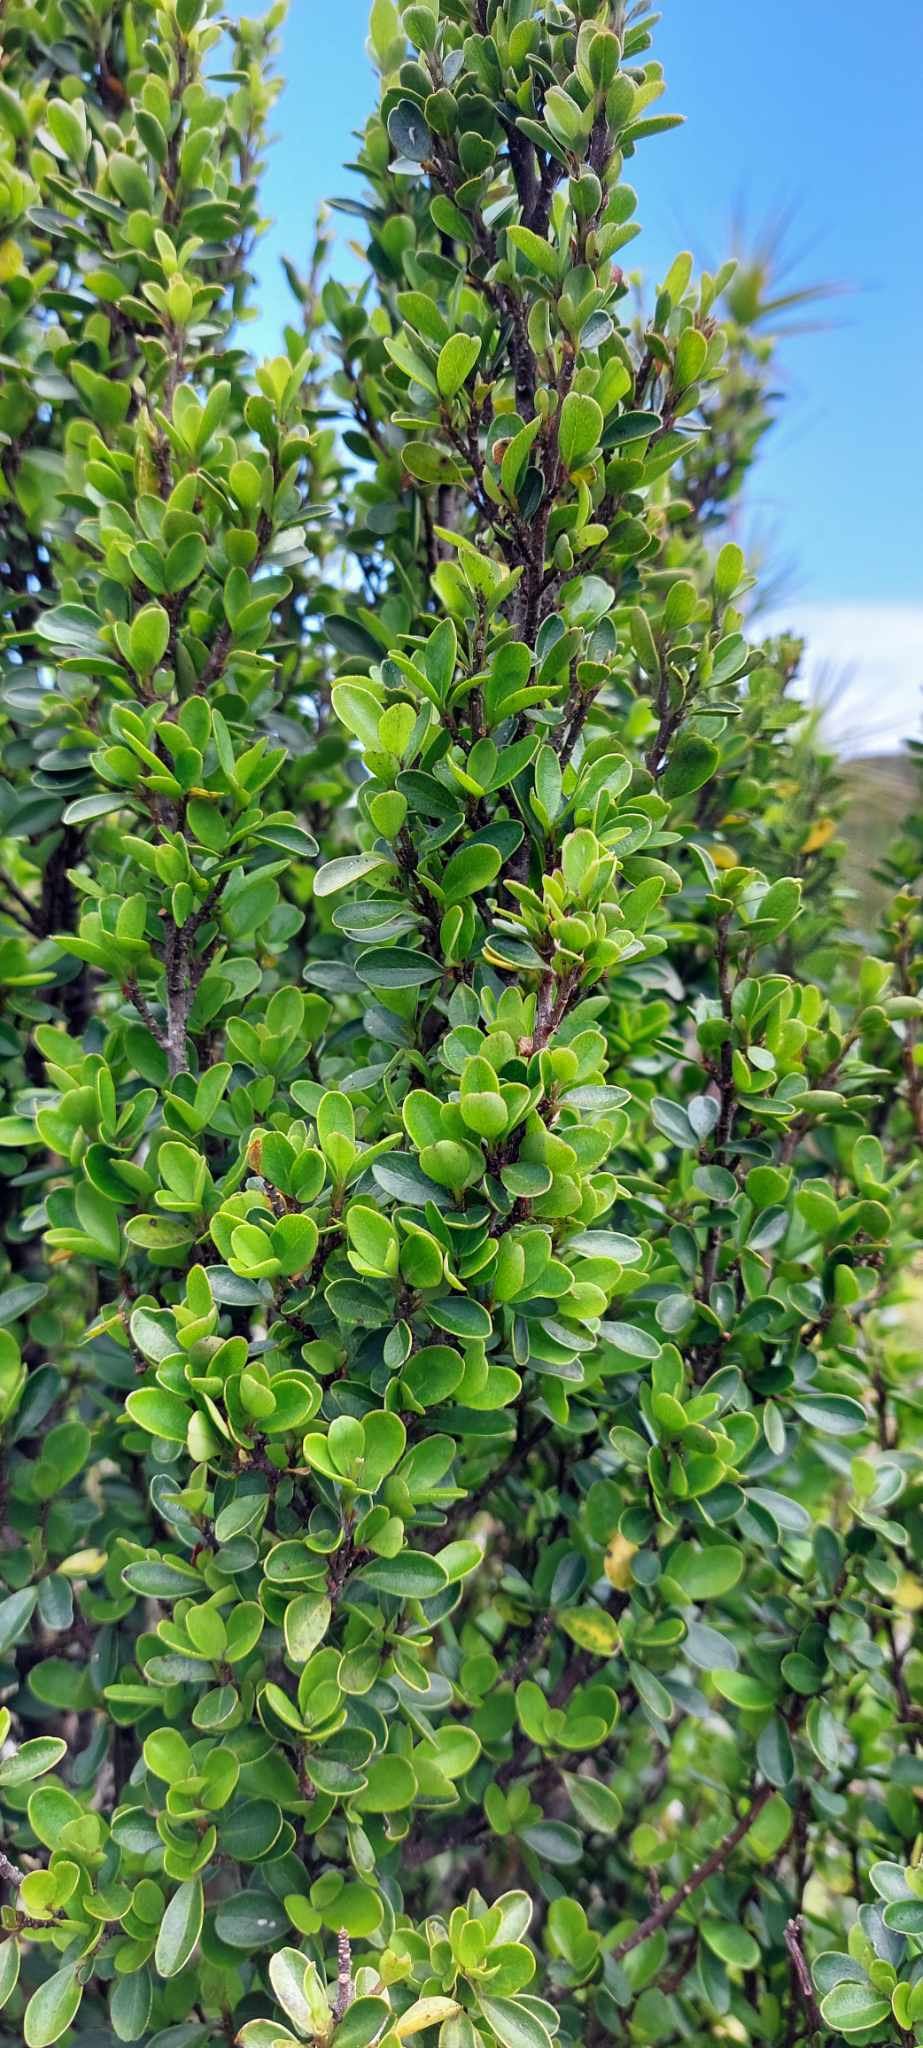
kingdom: Plantae
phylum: Tracheophyta
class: Magnoliopsida
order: Ericales
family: Primulaceae
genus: Myrsine
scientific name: Myrsine coxii
